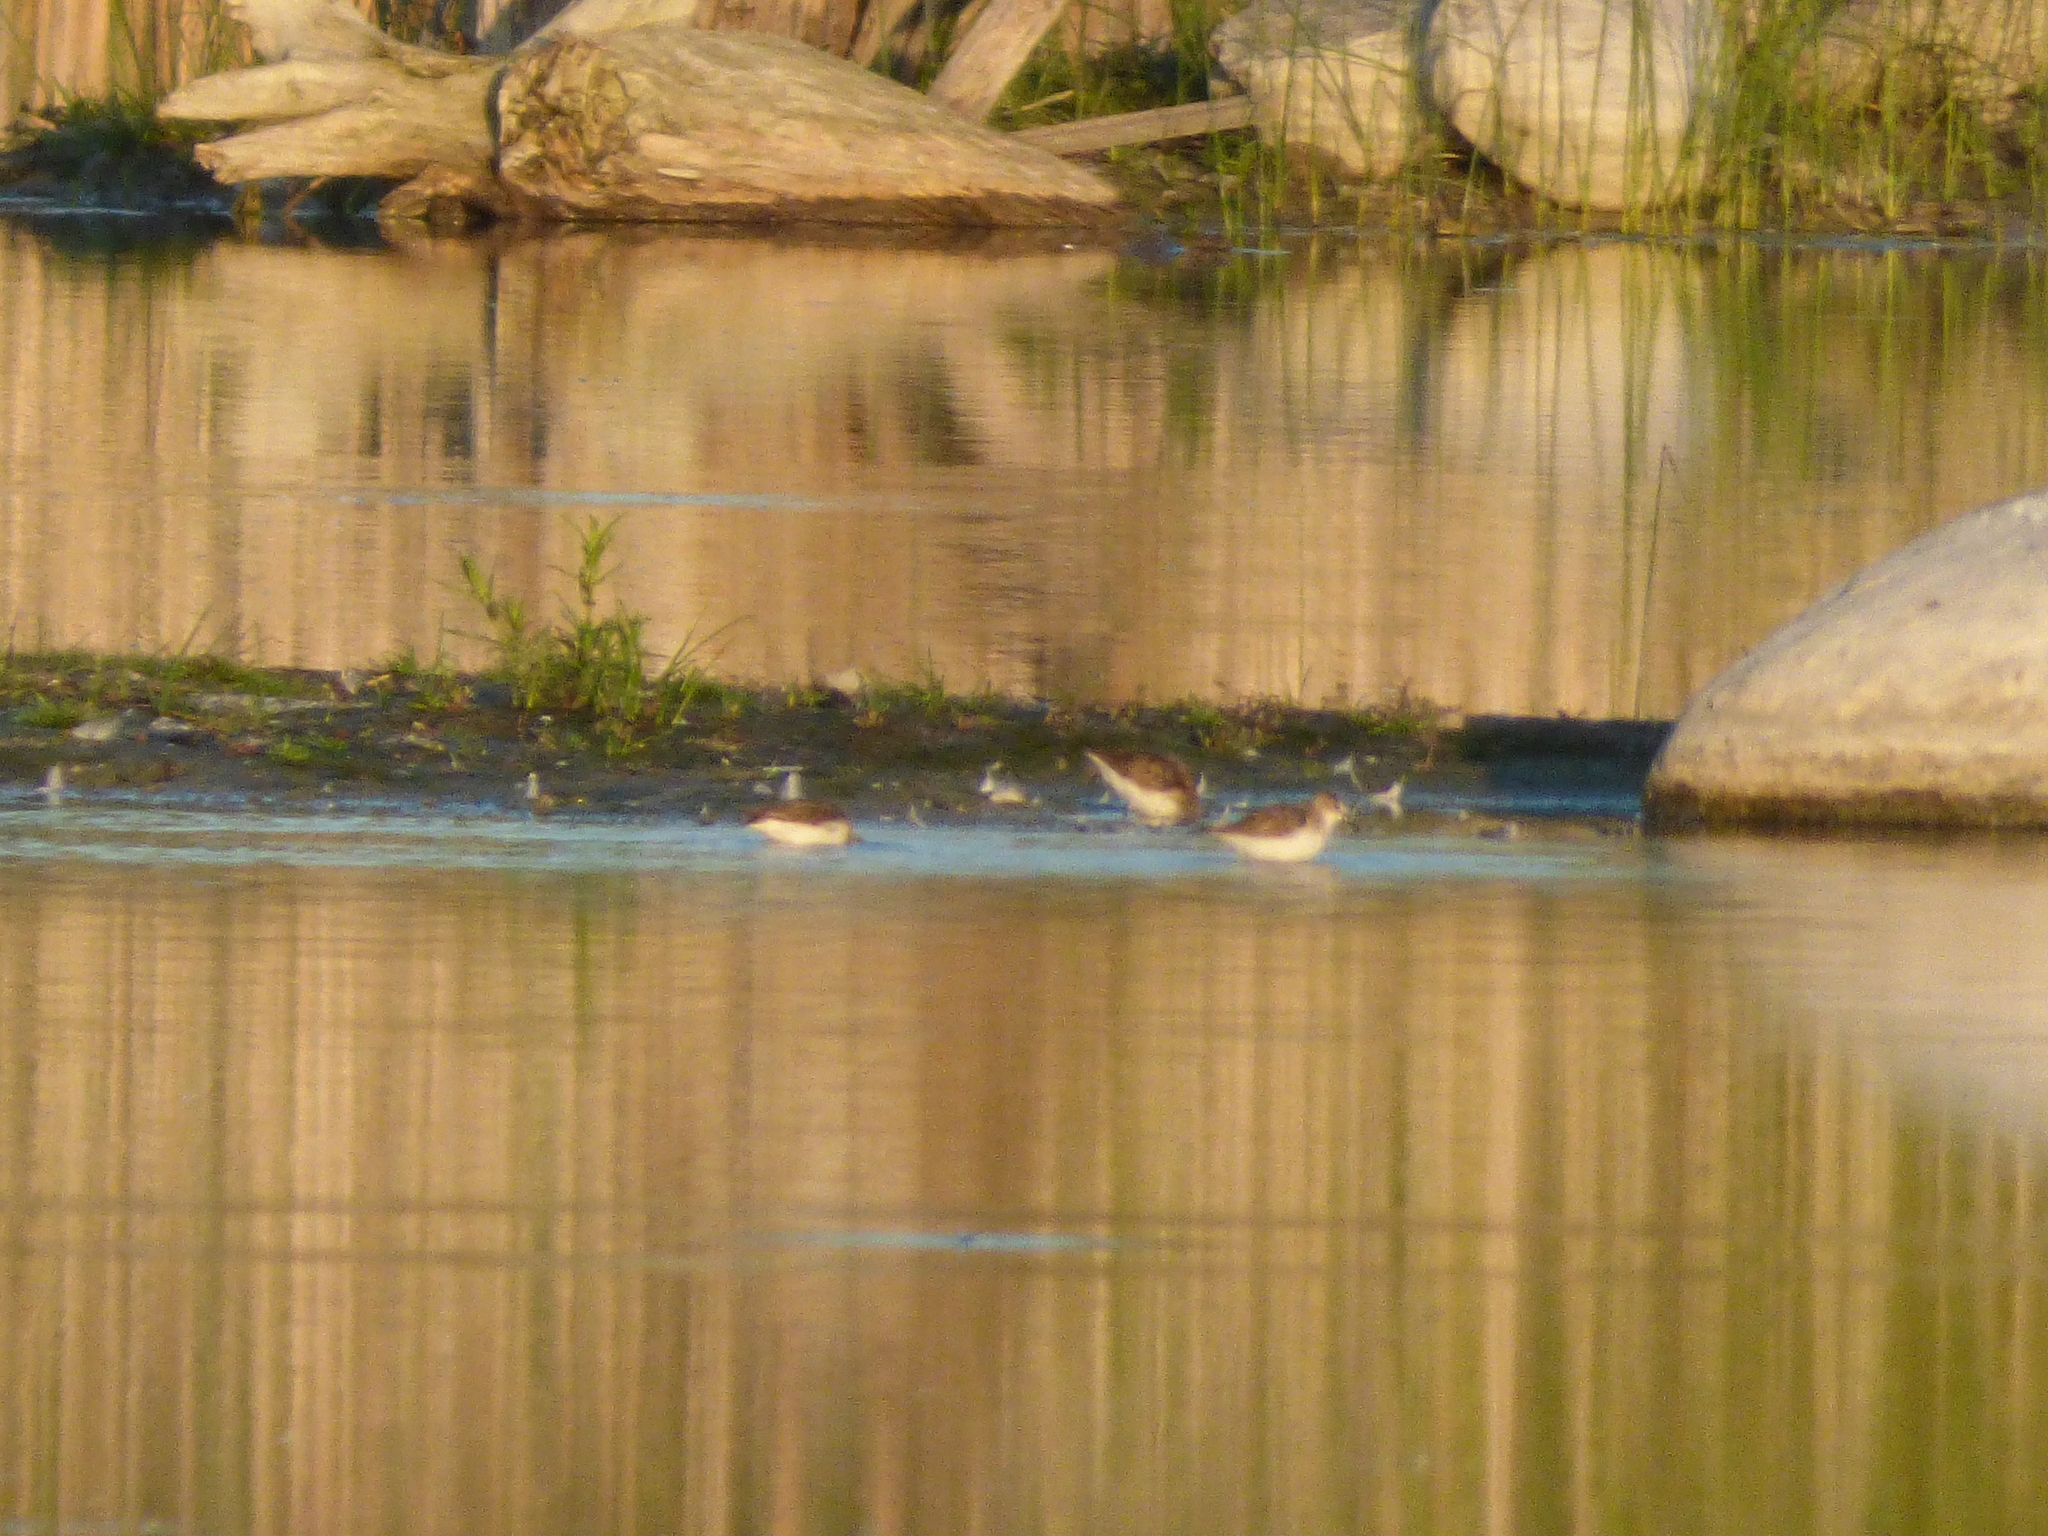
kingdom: Animalia
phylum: Chordata
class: Aves
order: Charadriiformes
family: Scolopacidae
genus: Calidris
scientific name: Calidris pusilla
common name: Semipalmated sandpiper
